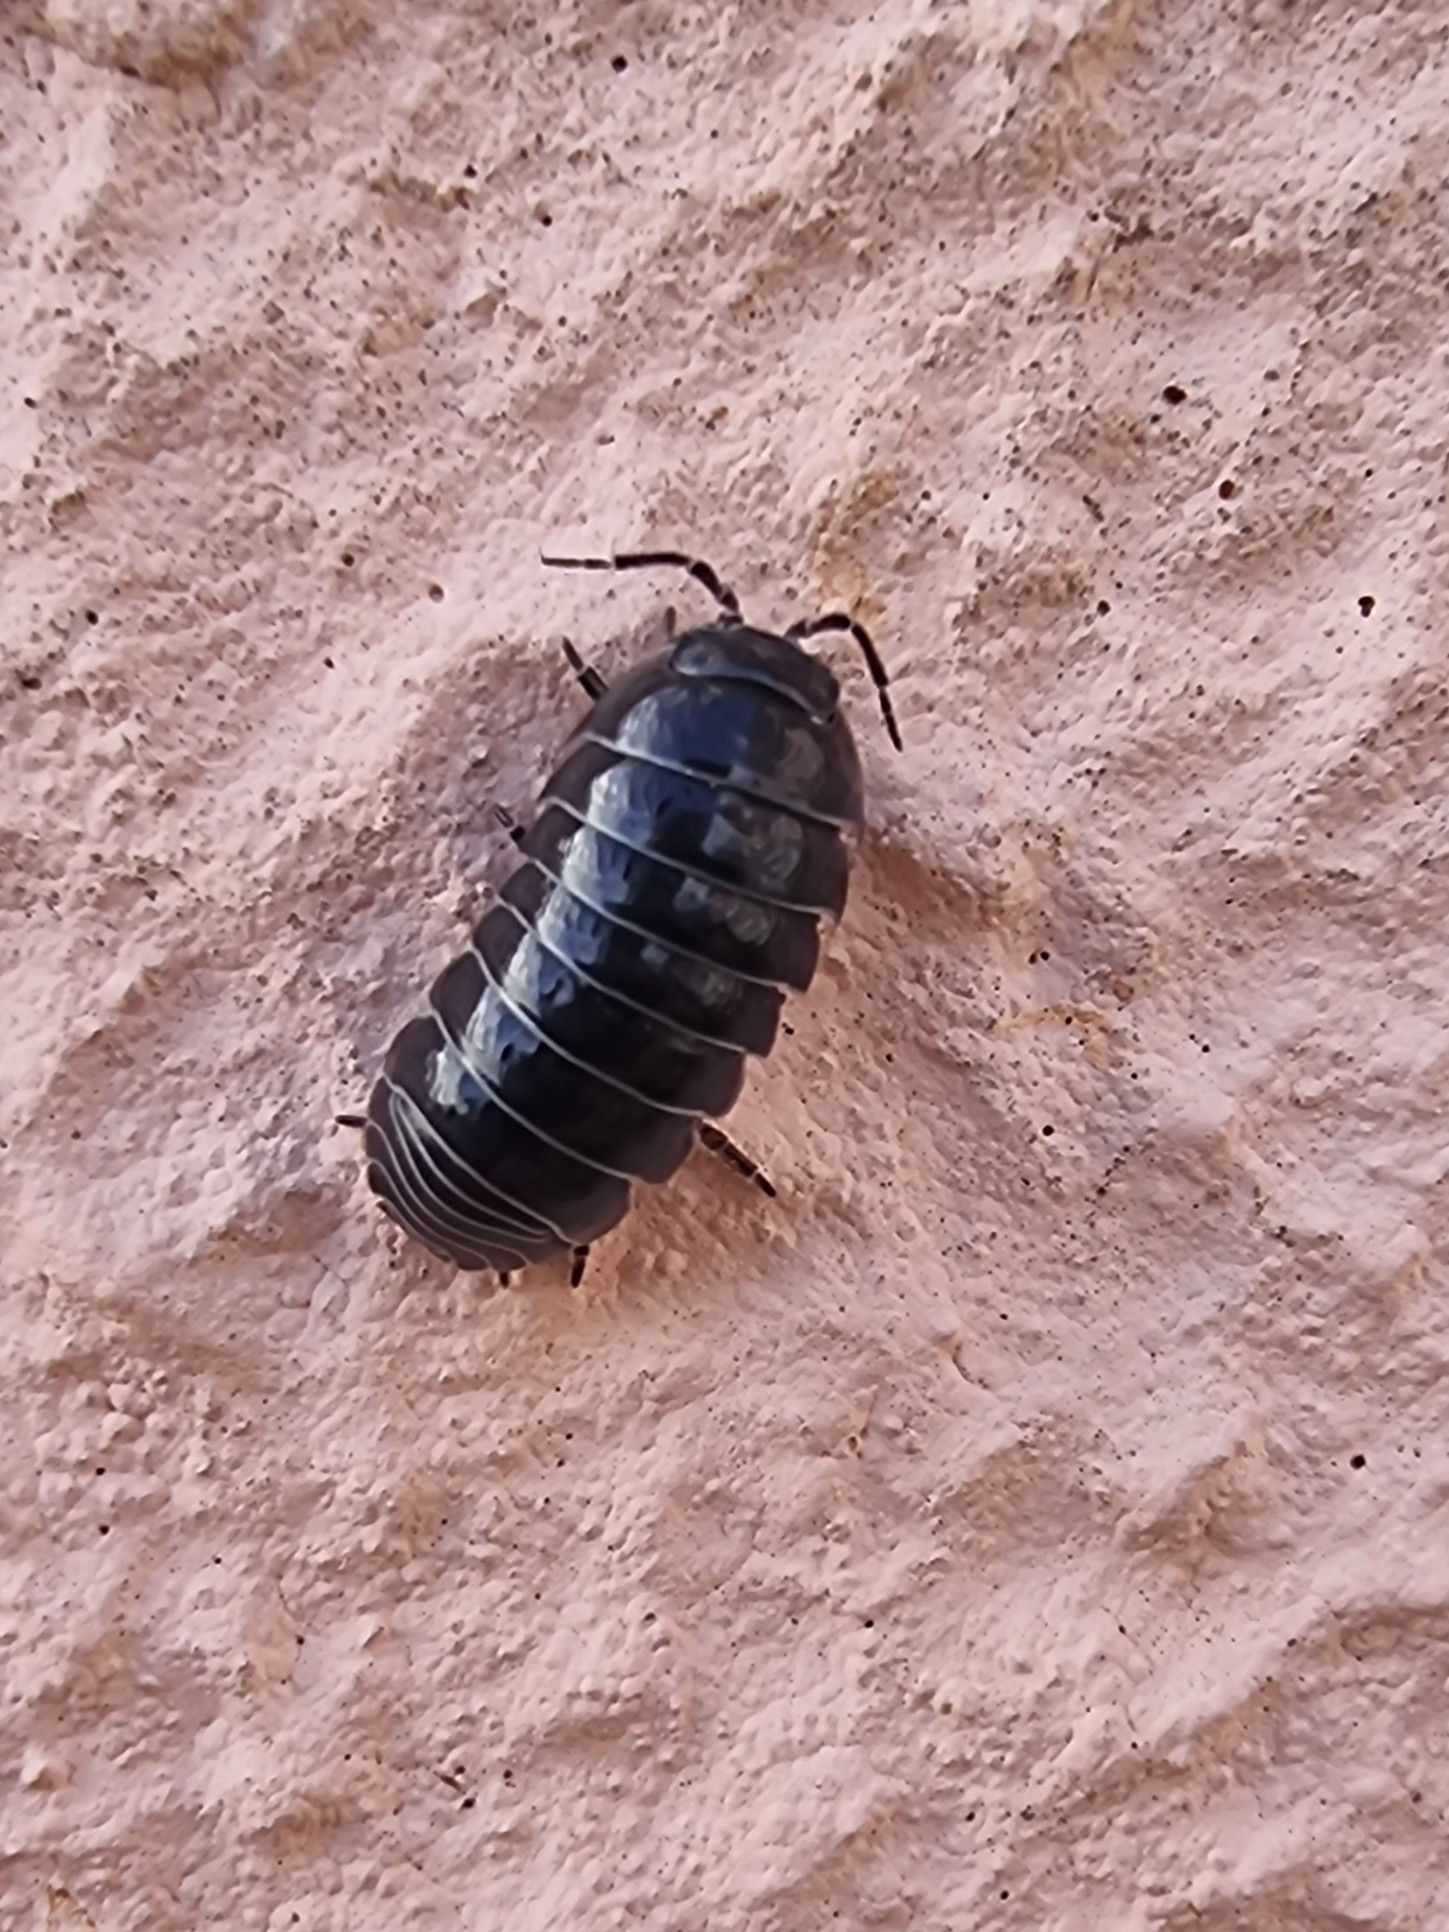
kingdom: Animalia
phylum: Arthropoda
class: Malacostraca
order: Isopoda
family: Armadillidiidae
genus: Armadillidium
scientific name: Armadillidium vulgare
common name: Common pill woodlouse
